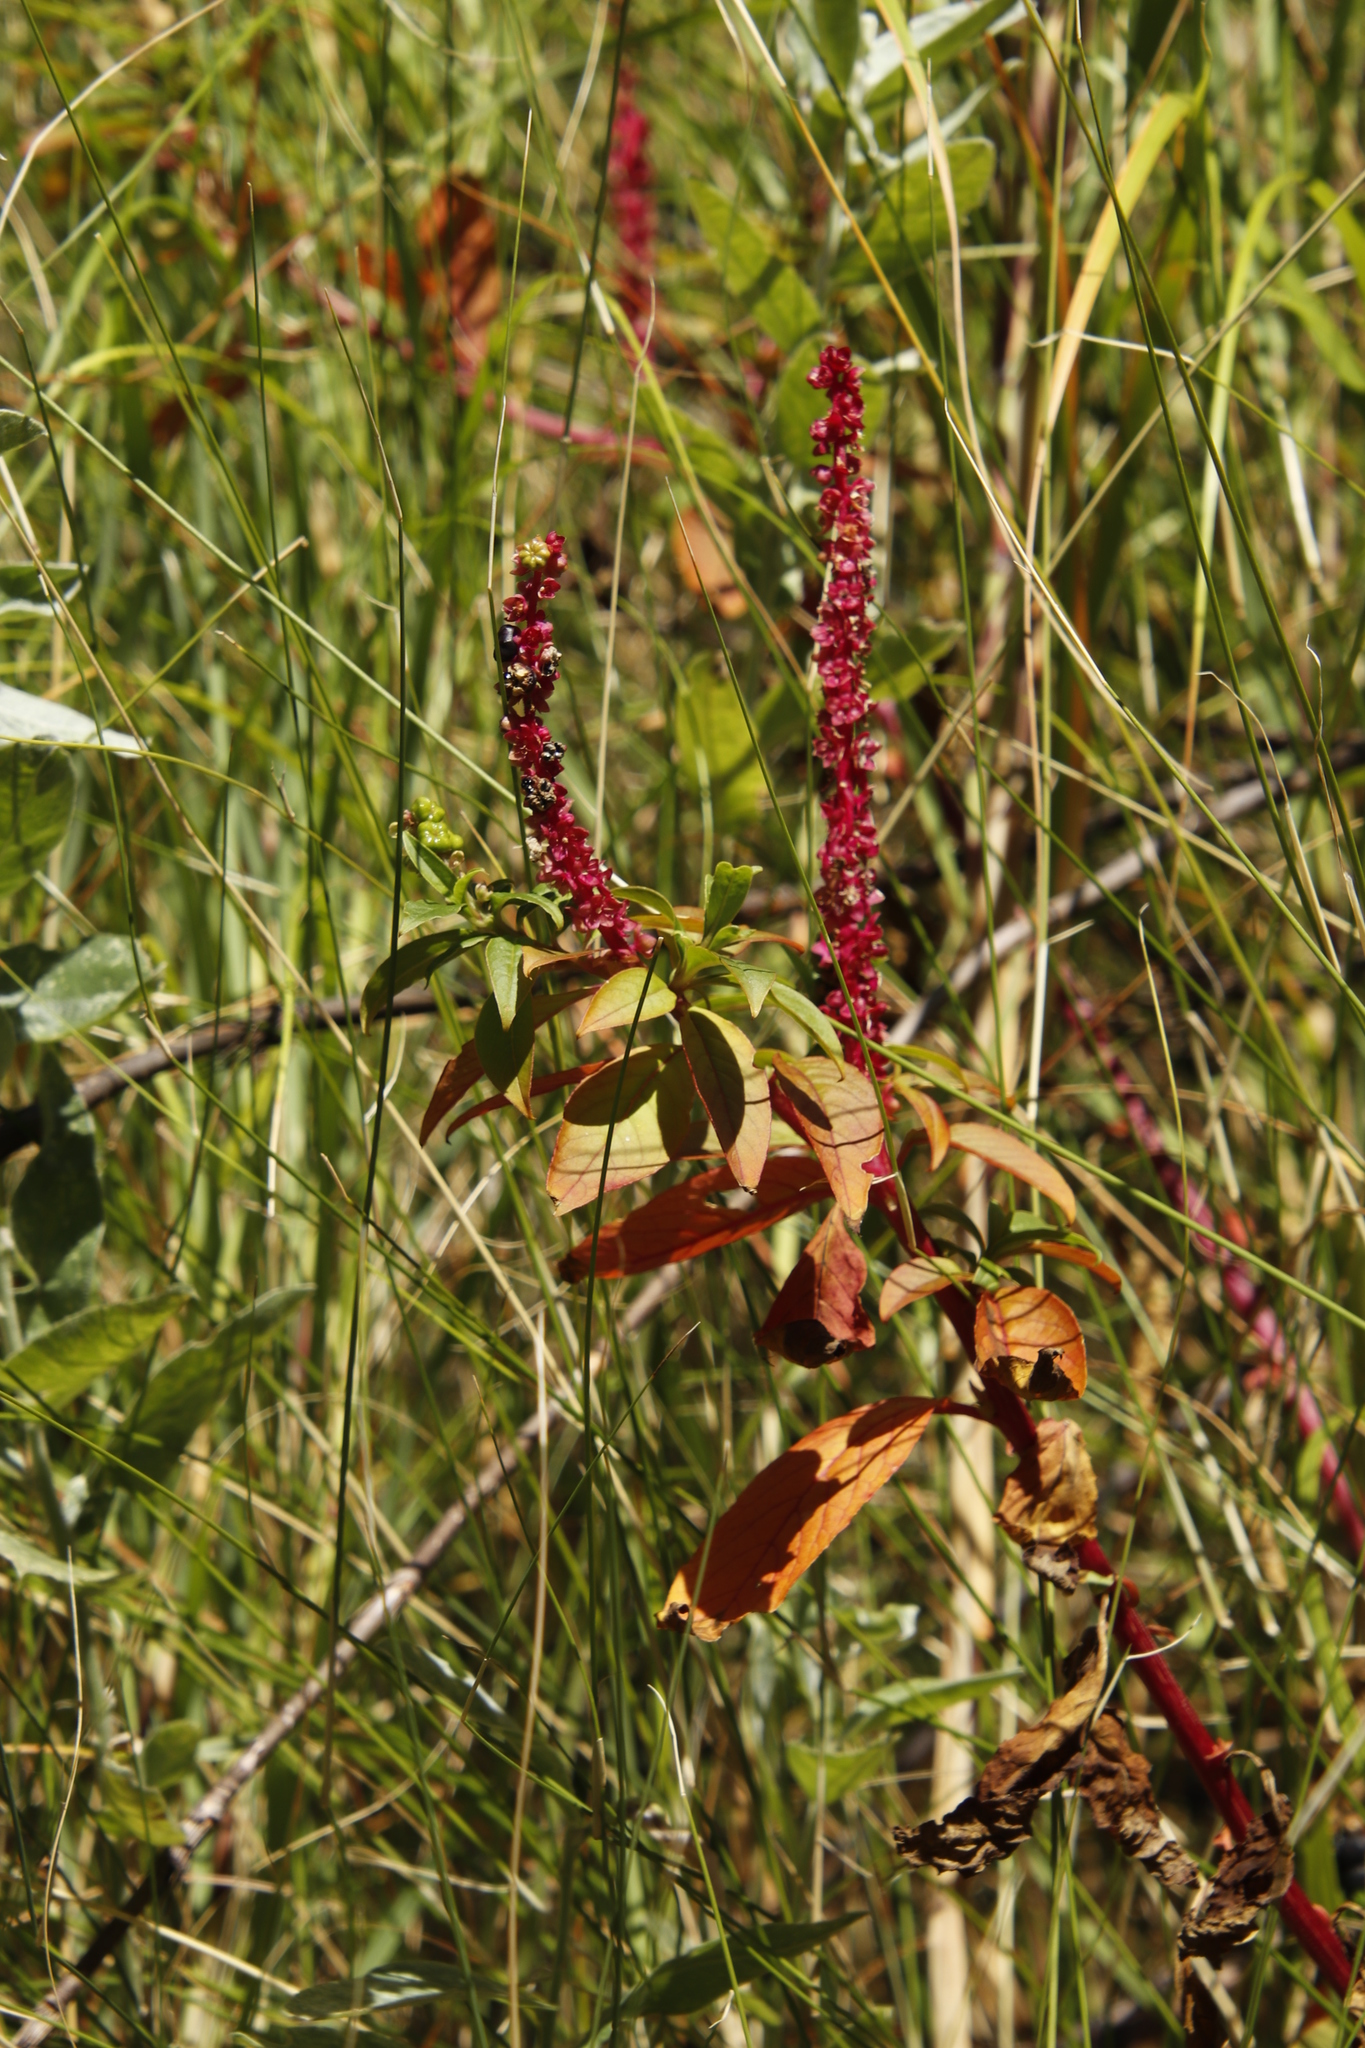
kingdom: Plantae
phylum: Tracheophyta
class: Magnoliopsida
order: Caryophyllales
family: Phytolaccaceae
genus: Phytolacca
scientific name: Phytolacca icosandra
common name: Button pokeweed
